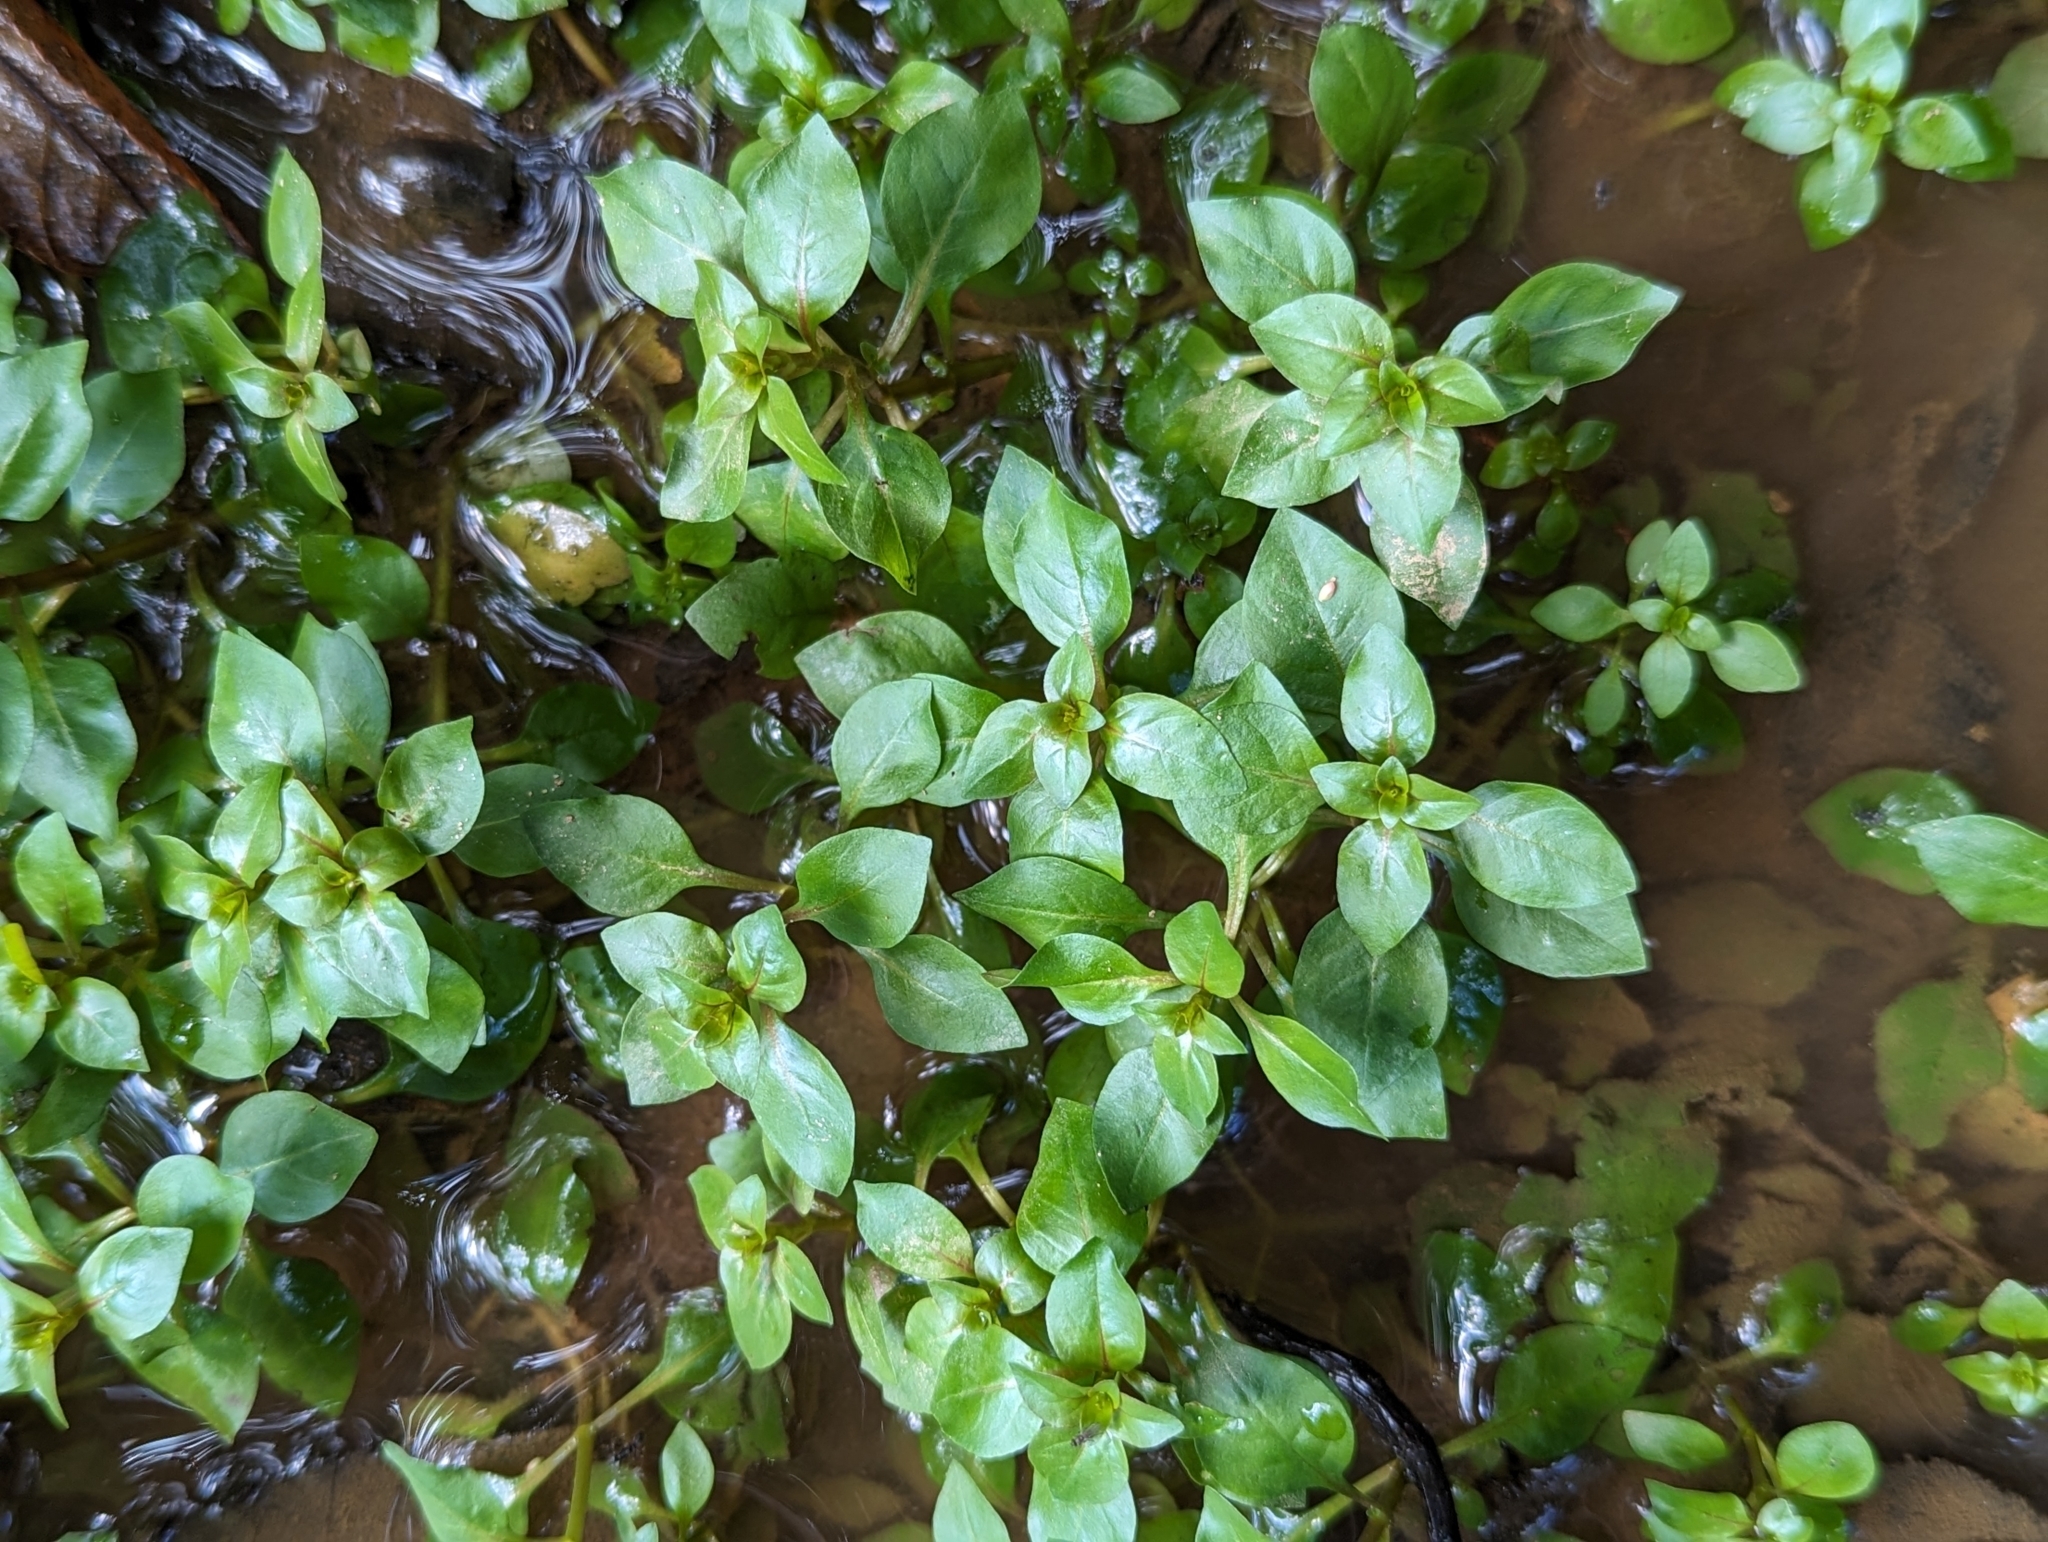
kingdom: Plantae
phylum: Tracheophyta
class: Magnoliopsida
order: Myrtales
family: Onagraceae
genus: Ludwigia
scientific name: Ludwigia palustris
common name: Hampshire-purslane
